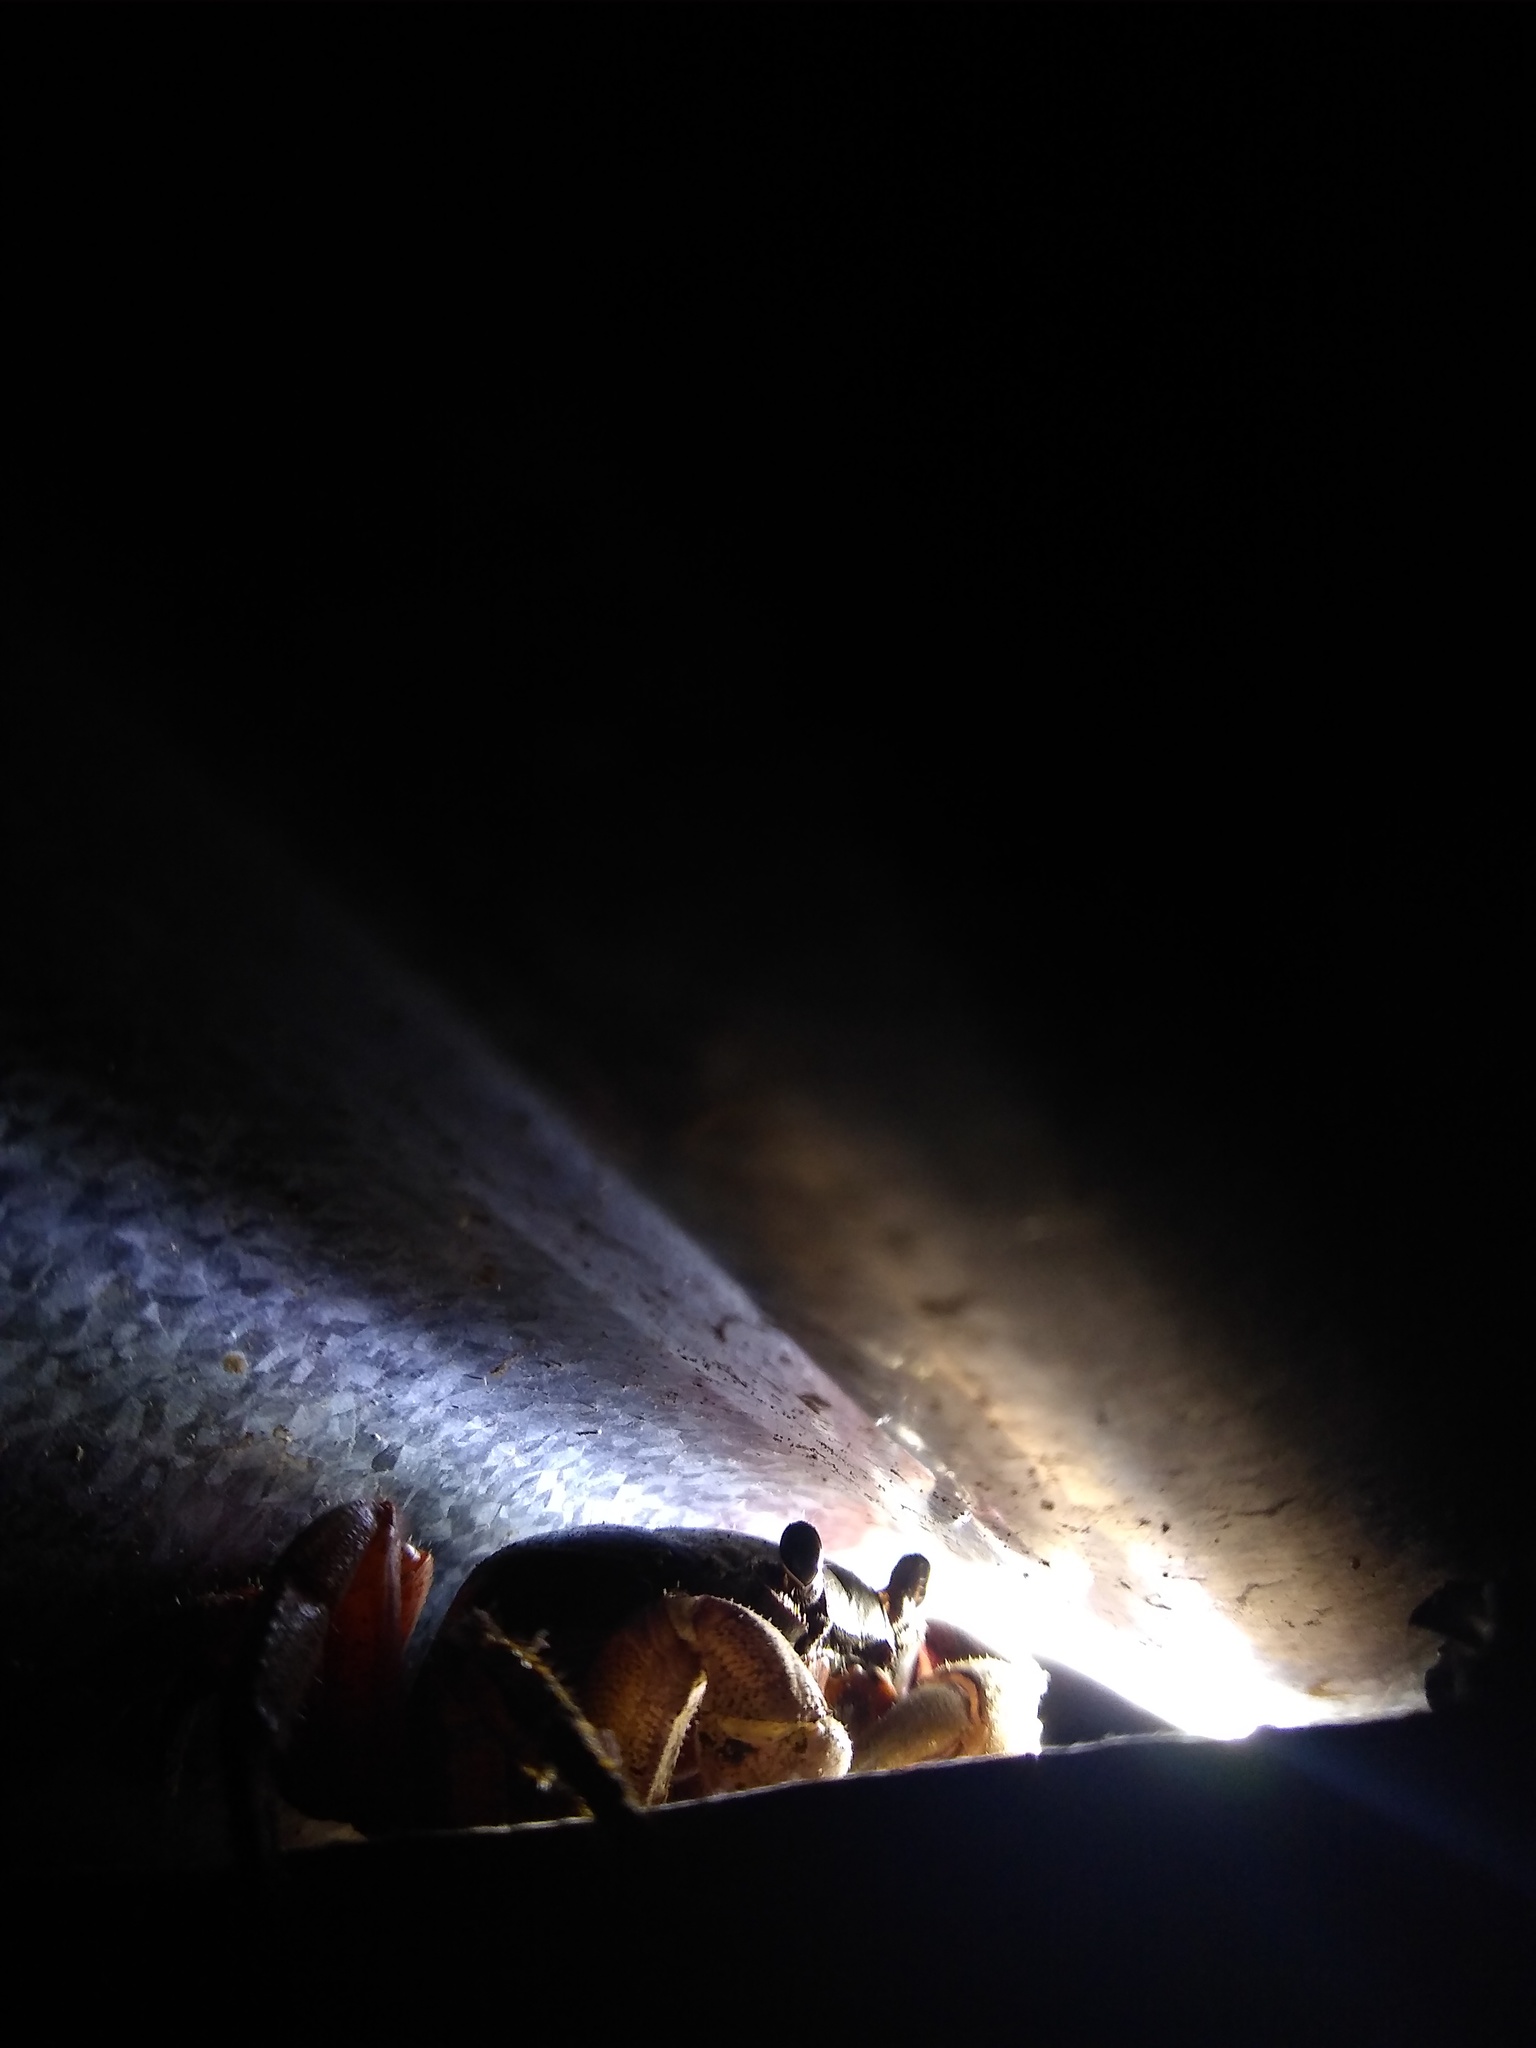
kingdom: Animalia
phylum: Arthropoda
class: Malacostraca
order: Decapoda
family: Gecarcinidae
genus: Gecarcinus
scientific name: Gecarcinus quadratus
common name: Halloween crab
